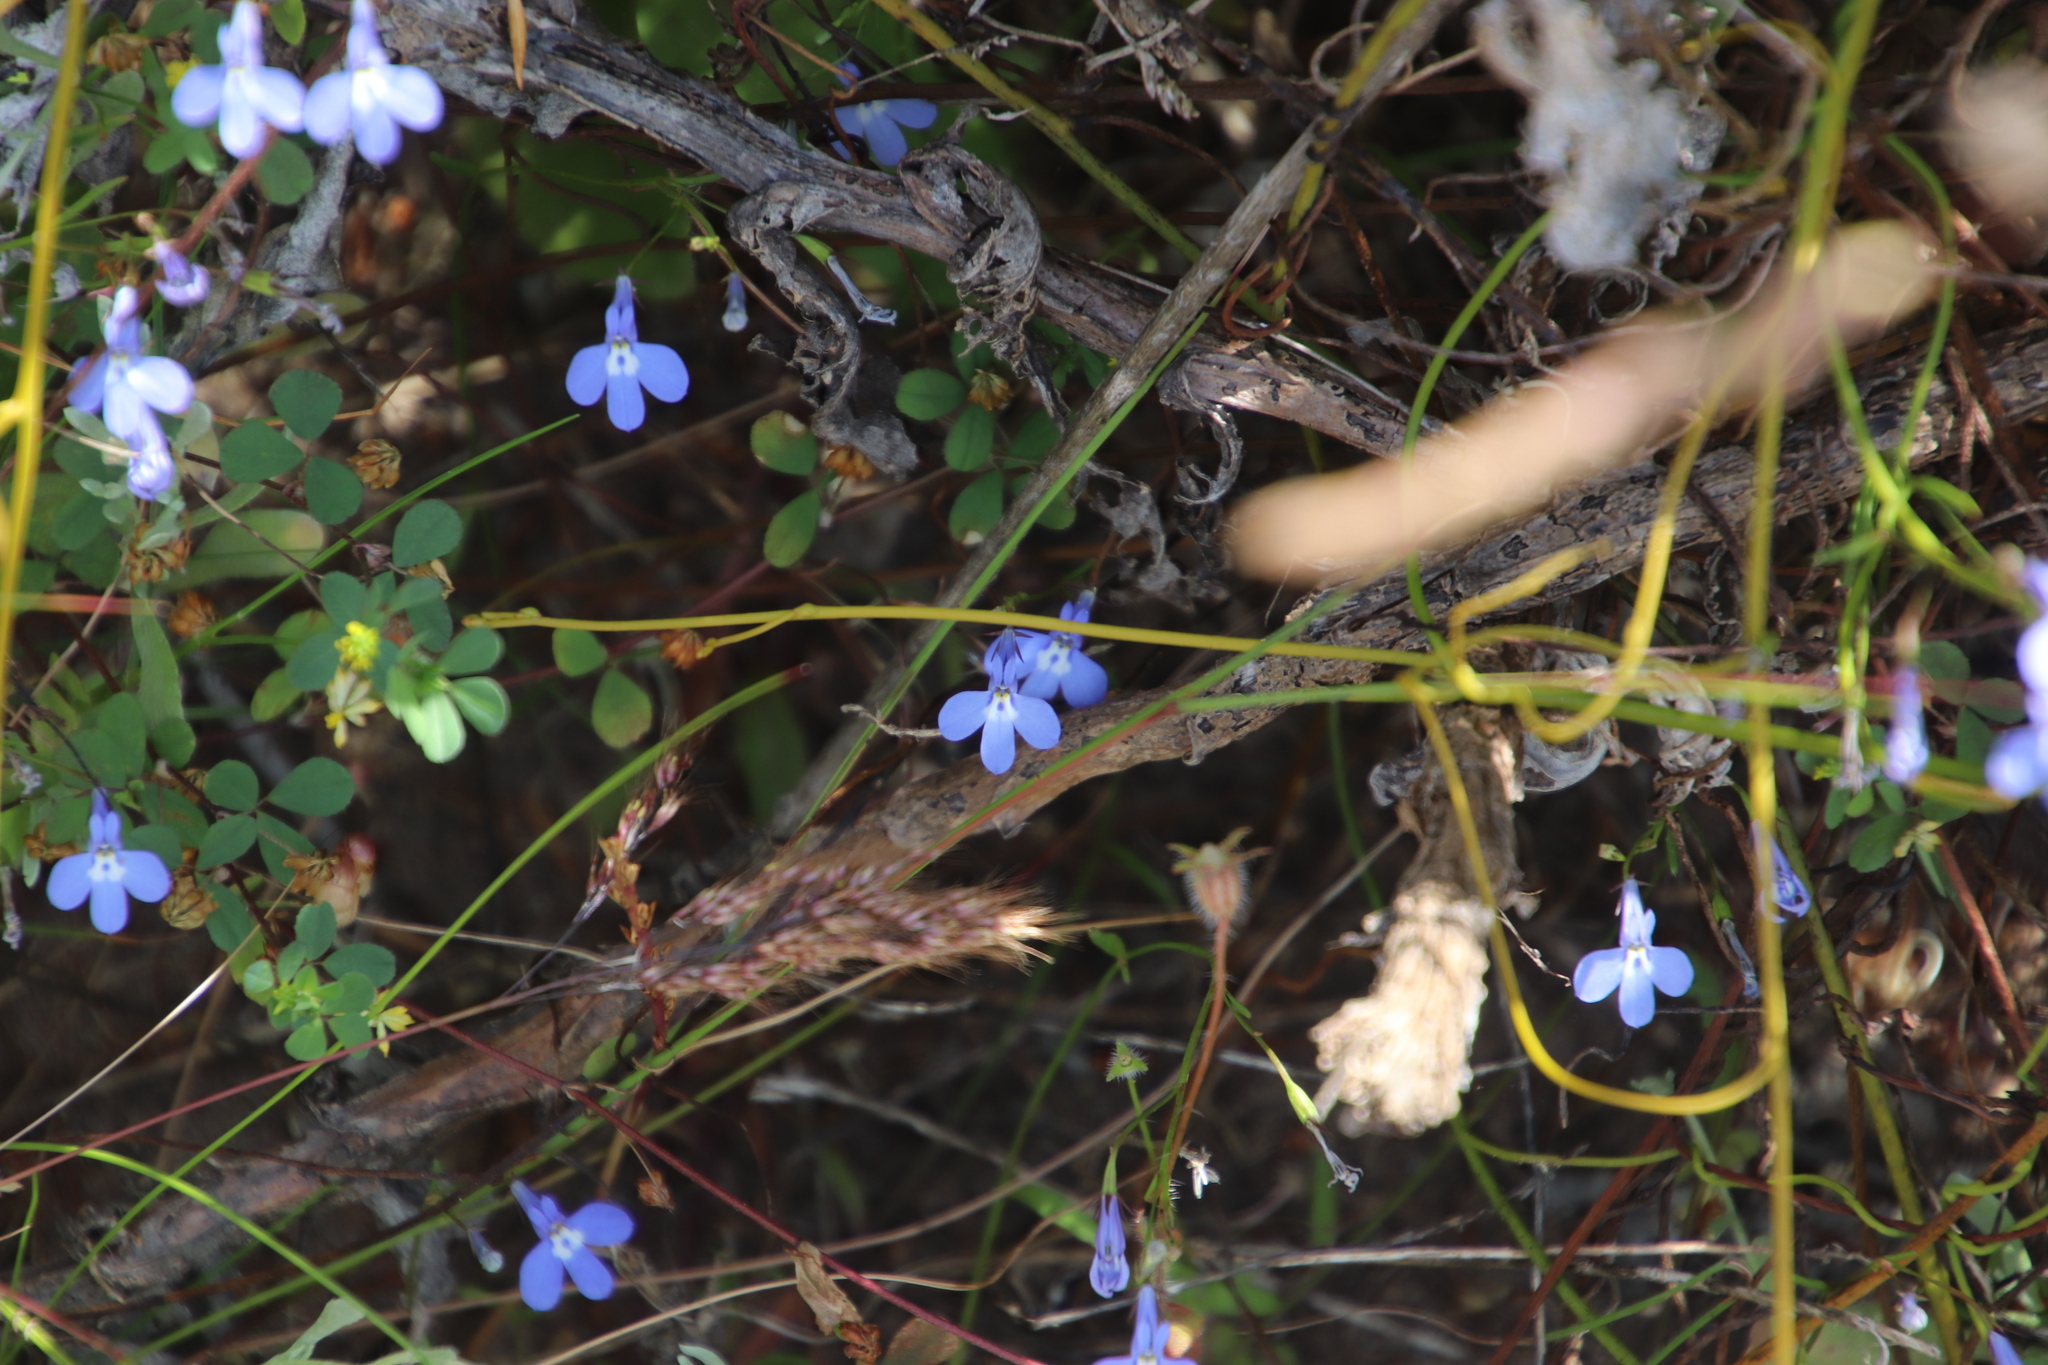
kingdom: Plantae
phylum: Tracheophyta
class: Magnoliopsida
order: Asterales
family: Campanulaceae
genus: Lobelia
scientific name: Lobelia erinus
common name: Edging lobelia
